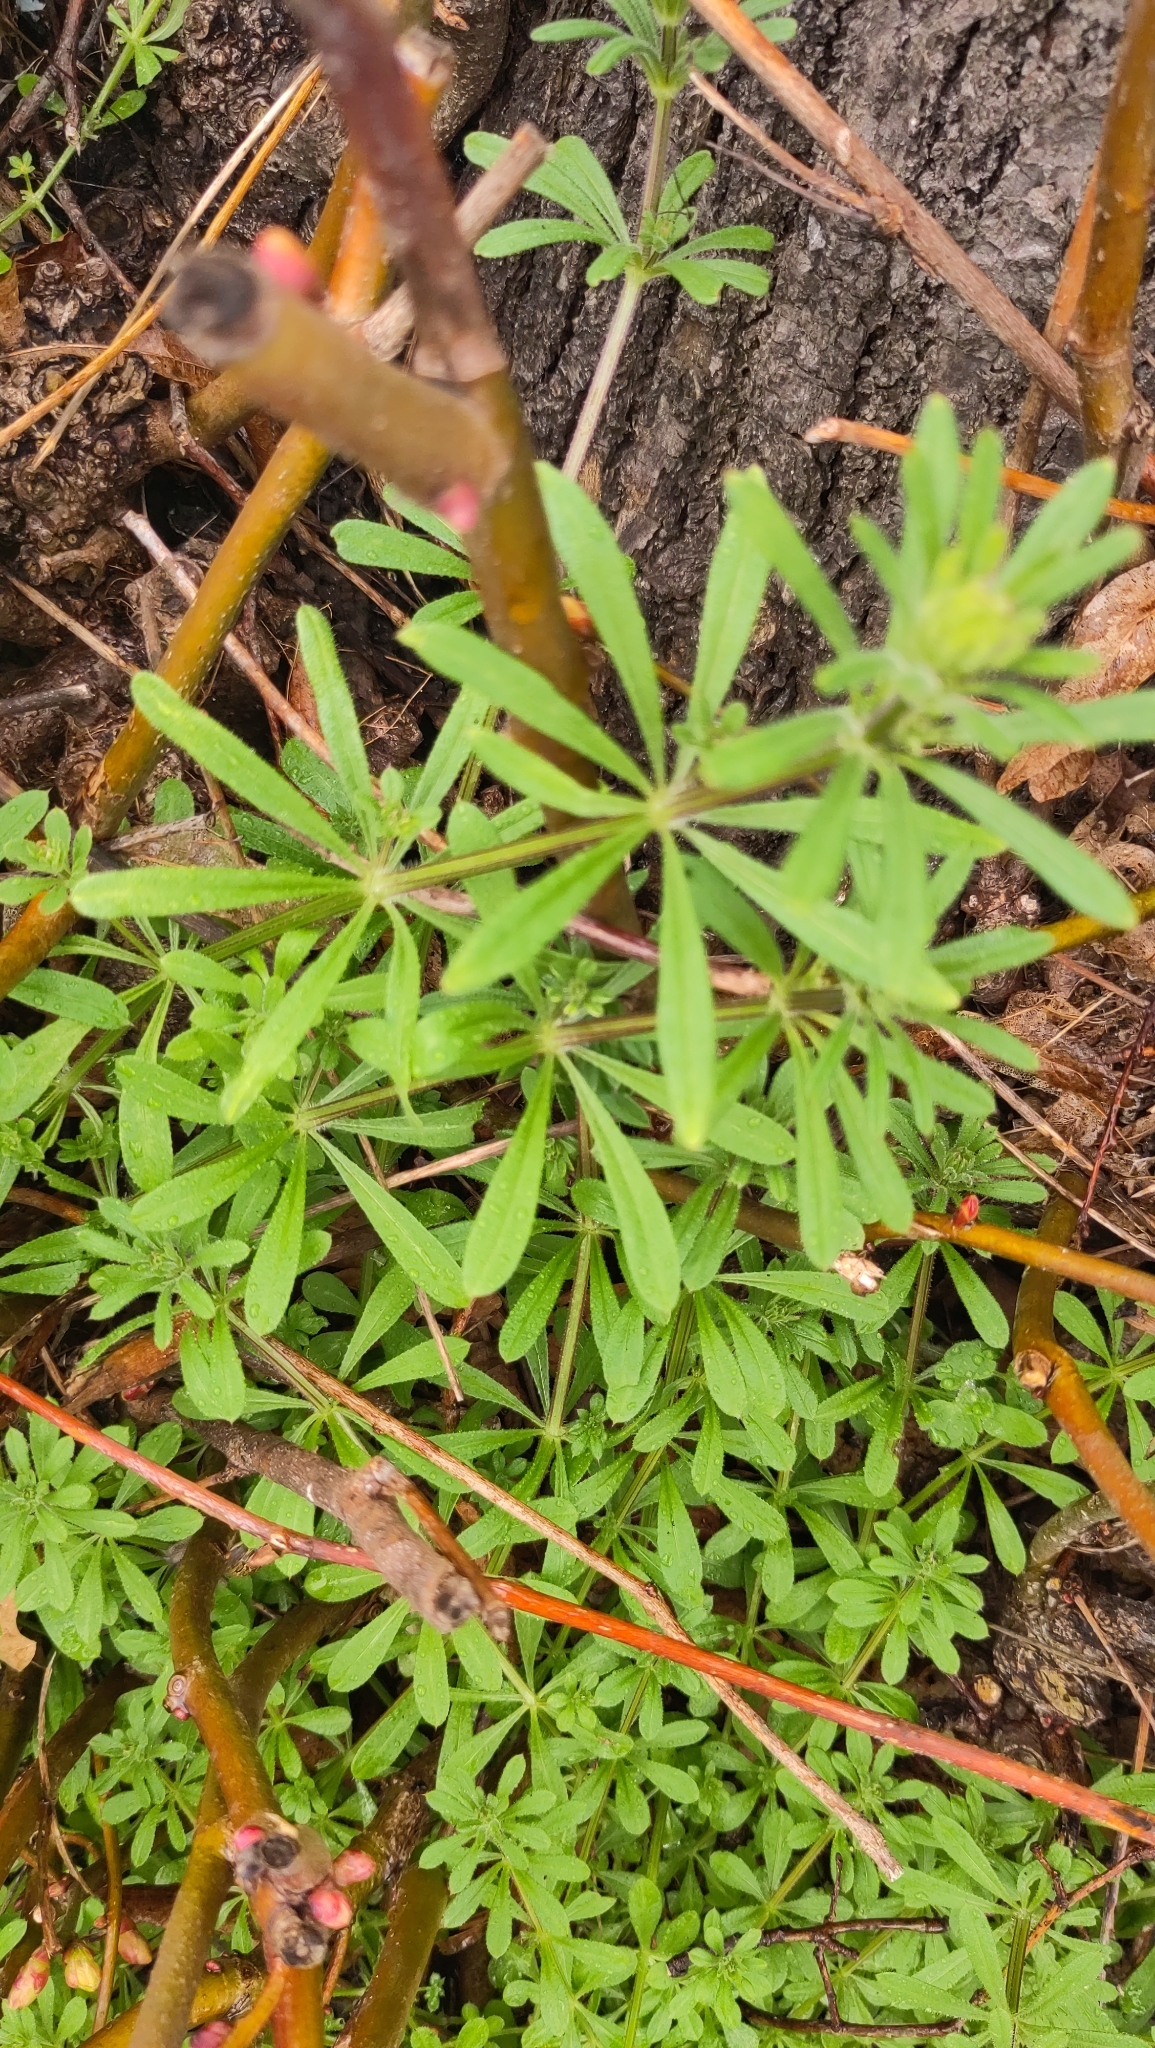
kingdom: Plantae
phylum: Tracheophyta
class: Magnoliopsida
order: Gentianales
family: Rubiaceae
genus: Galium
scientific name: Galium aparine
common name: Cleavers
